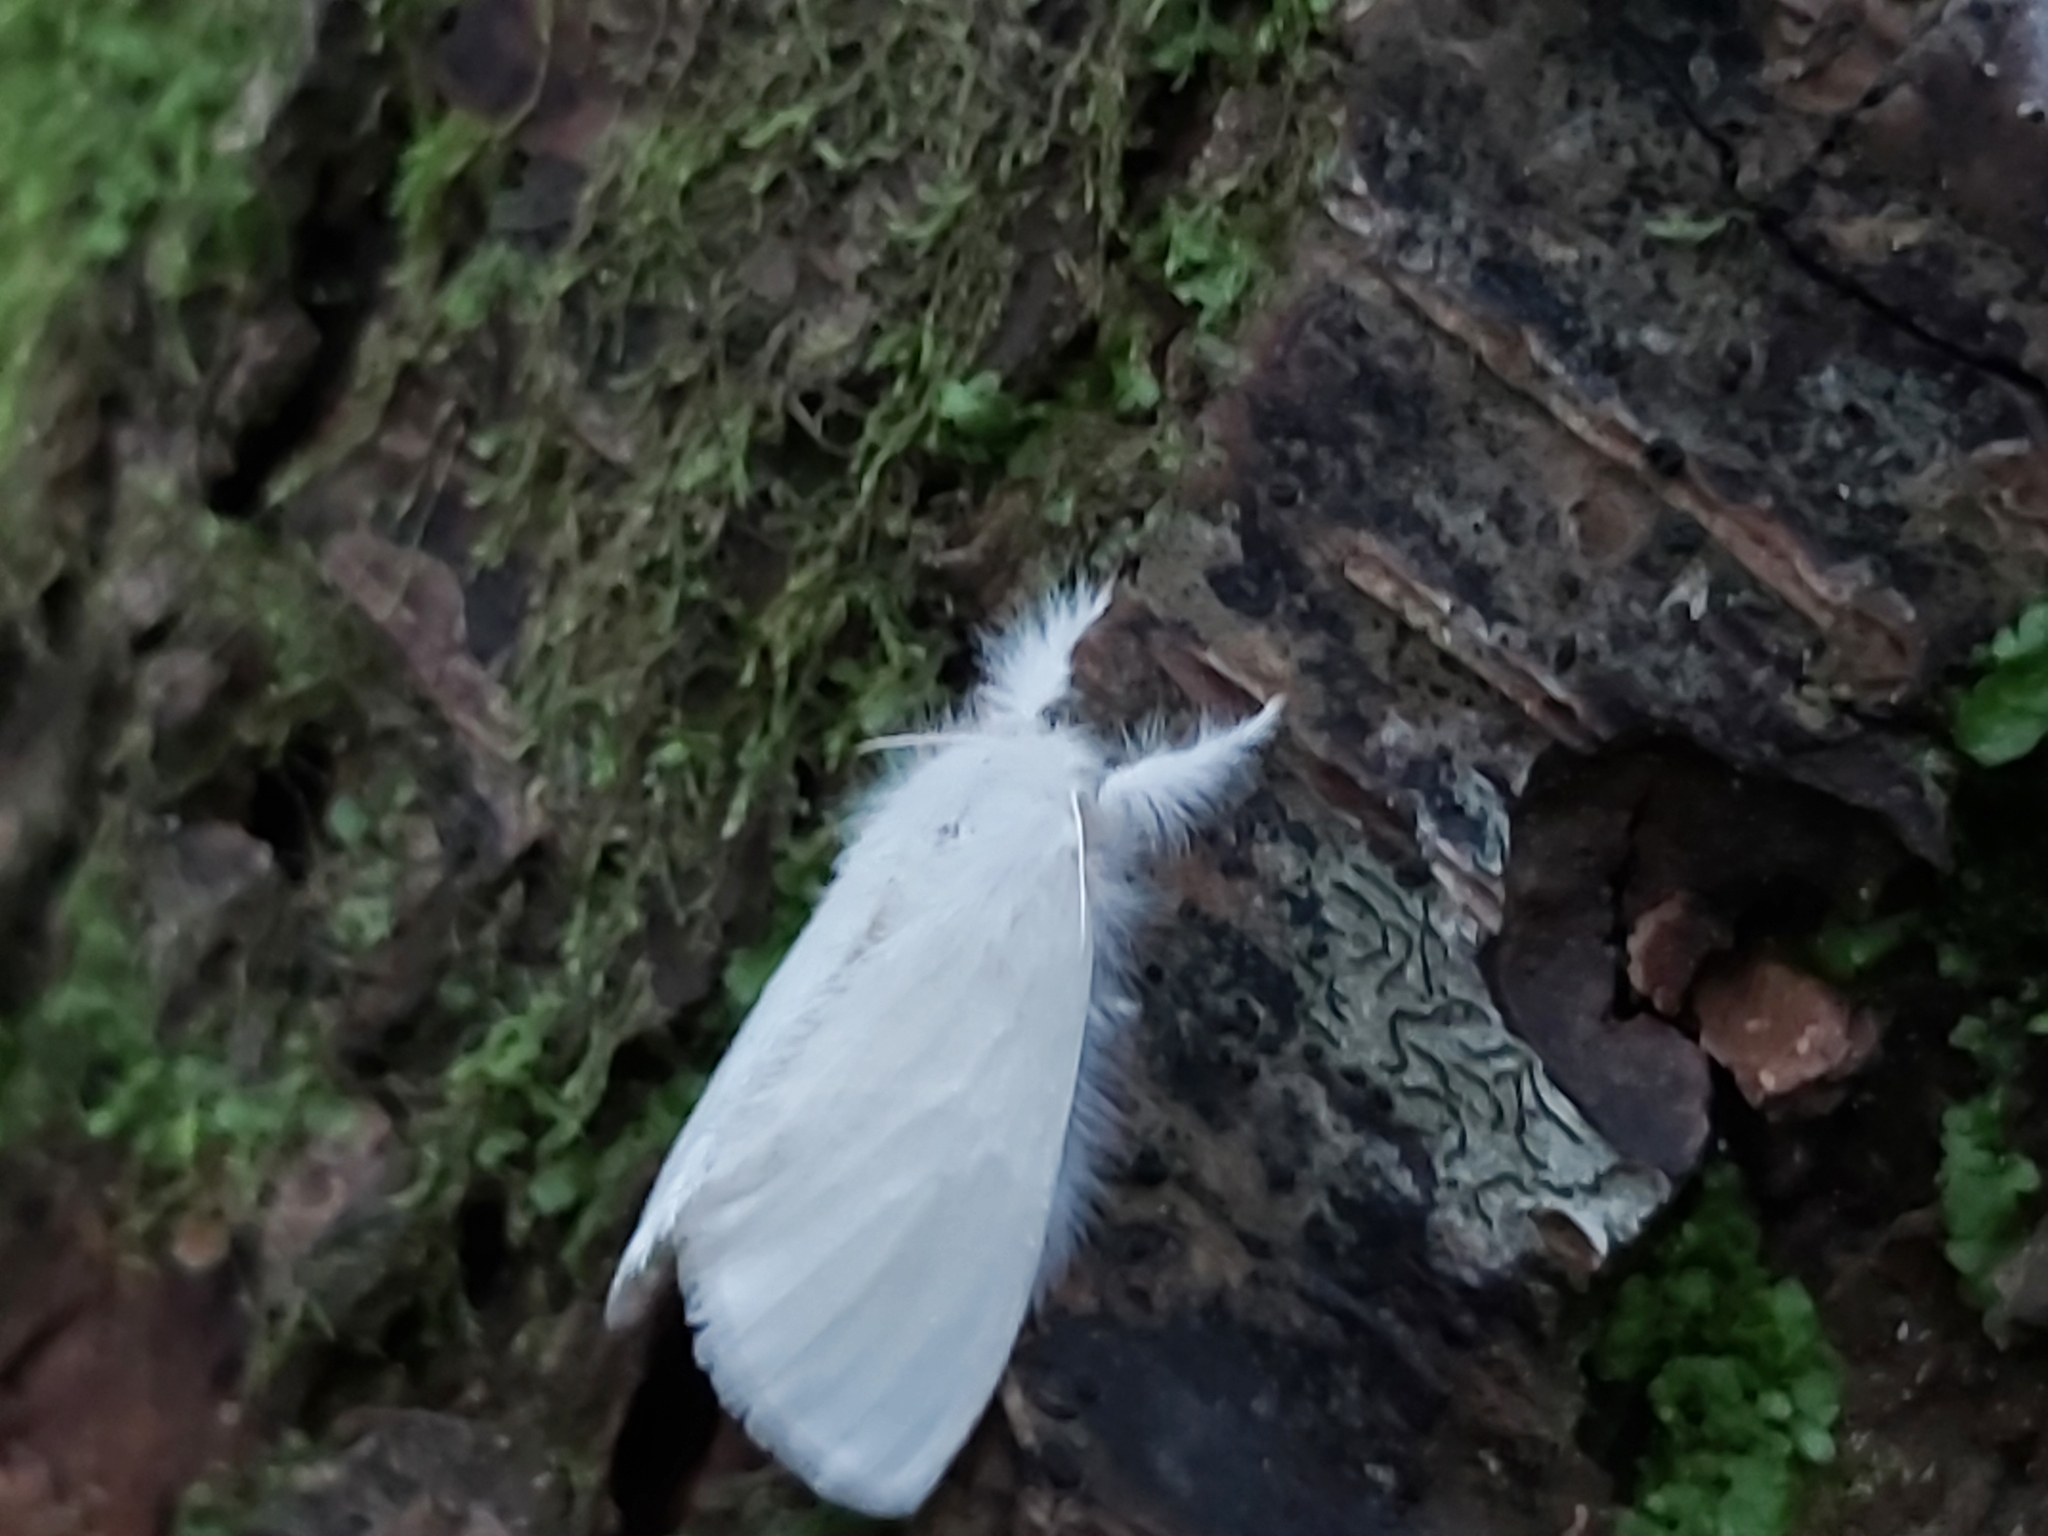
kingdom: Animalia
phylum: Arthropoda
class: Insecta
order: Lepidoptera
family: Erebidae
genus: Sphrageidus
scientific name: Sphrageidus similis
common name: Yellow-tail
